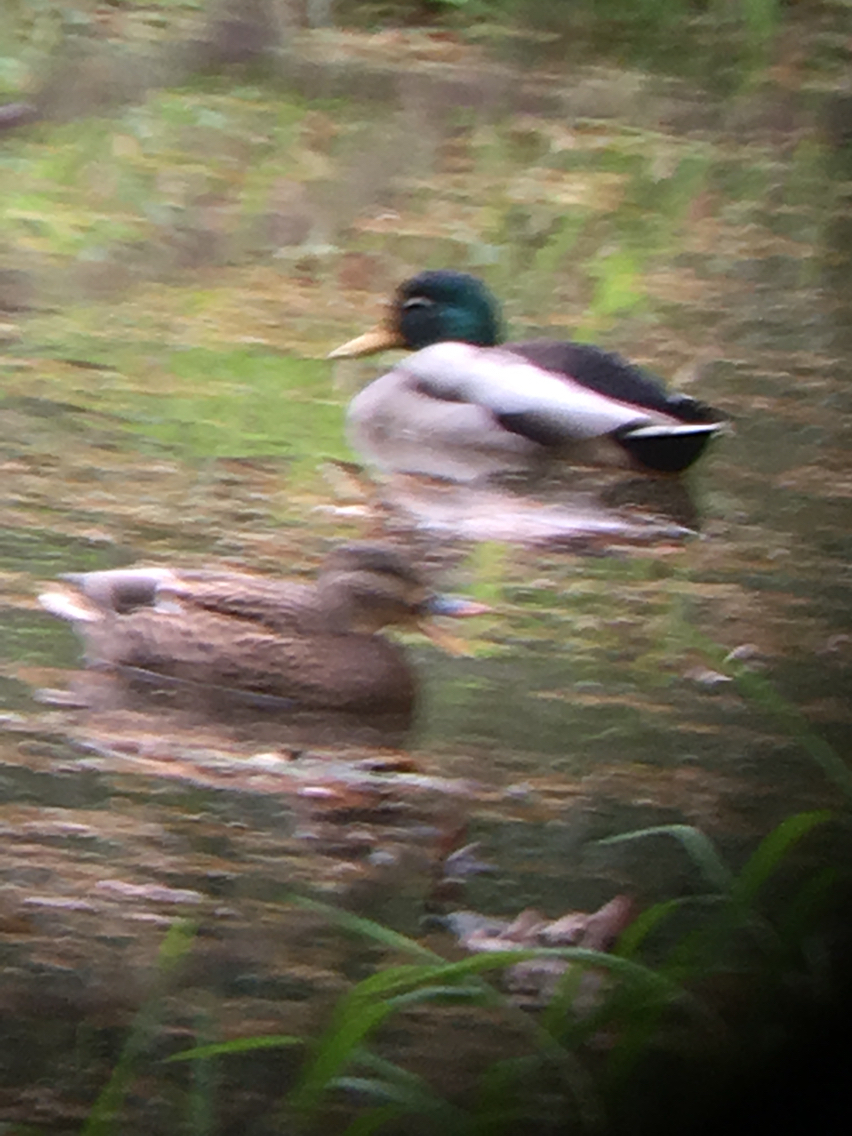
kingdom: Animalia
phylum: Chordata
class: Aves
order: Anseriformes
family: Anatidae
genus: Anas
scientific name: Anas platyrhynchos
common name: Mallard
